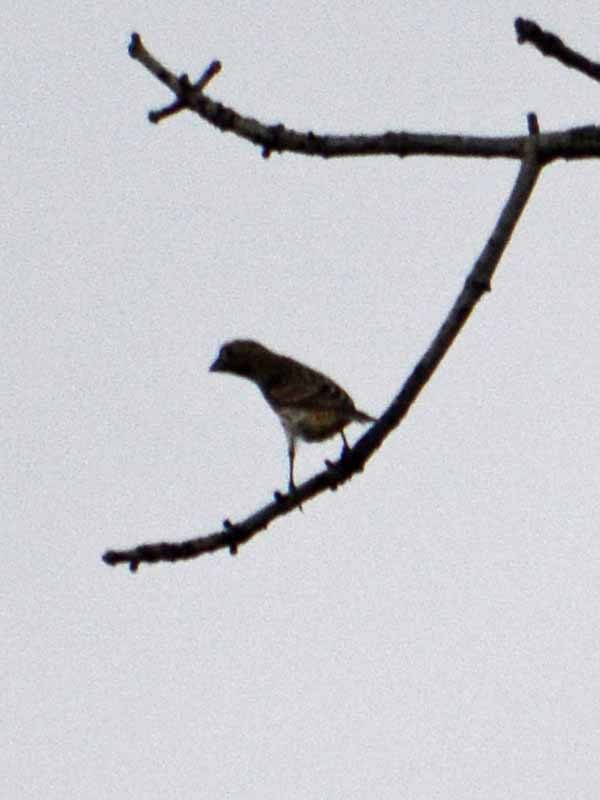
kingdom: Animalia
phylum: Chordata
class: Aves
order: Passeriformes
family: Fringillidae
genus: Haemorhous
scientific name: Haemorhous mexicanus
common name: House finch
